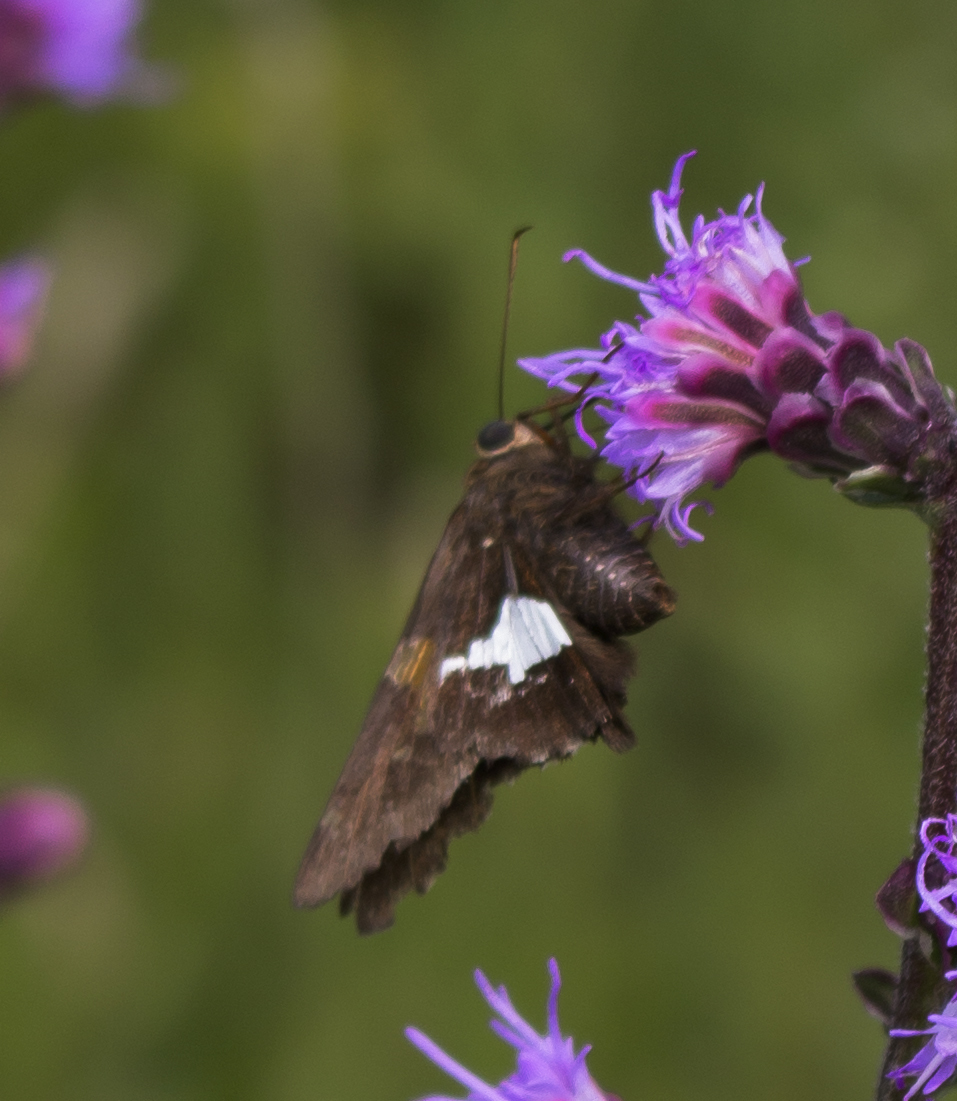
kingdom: Animalia
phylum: Arthropoda
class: Insecta
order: Lepidoptera
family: Hesperiidae
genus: Epargyreus
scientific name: Epargyreus clarus
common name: Silver-spotted skipper
